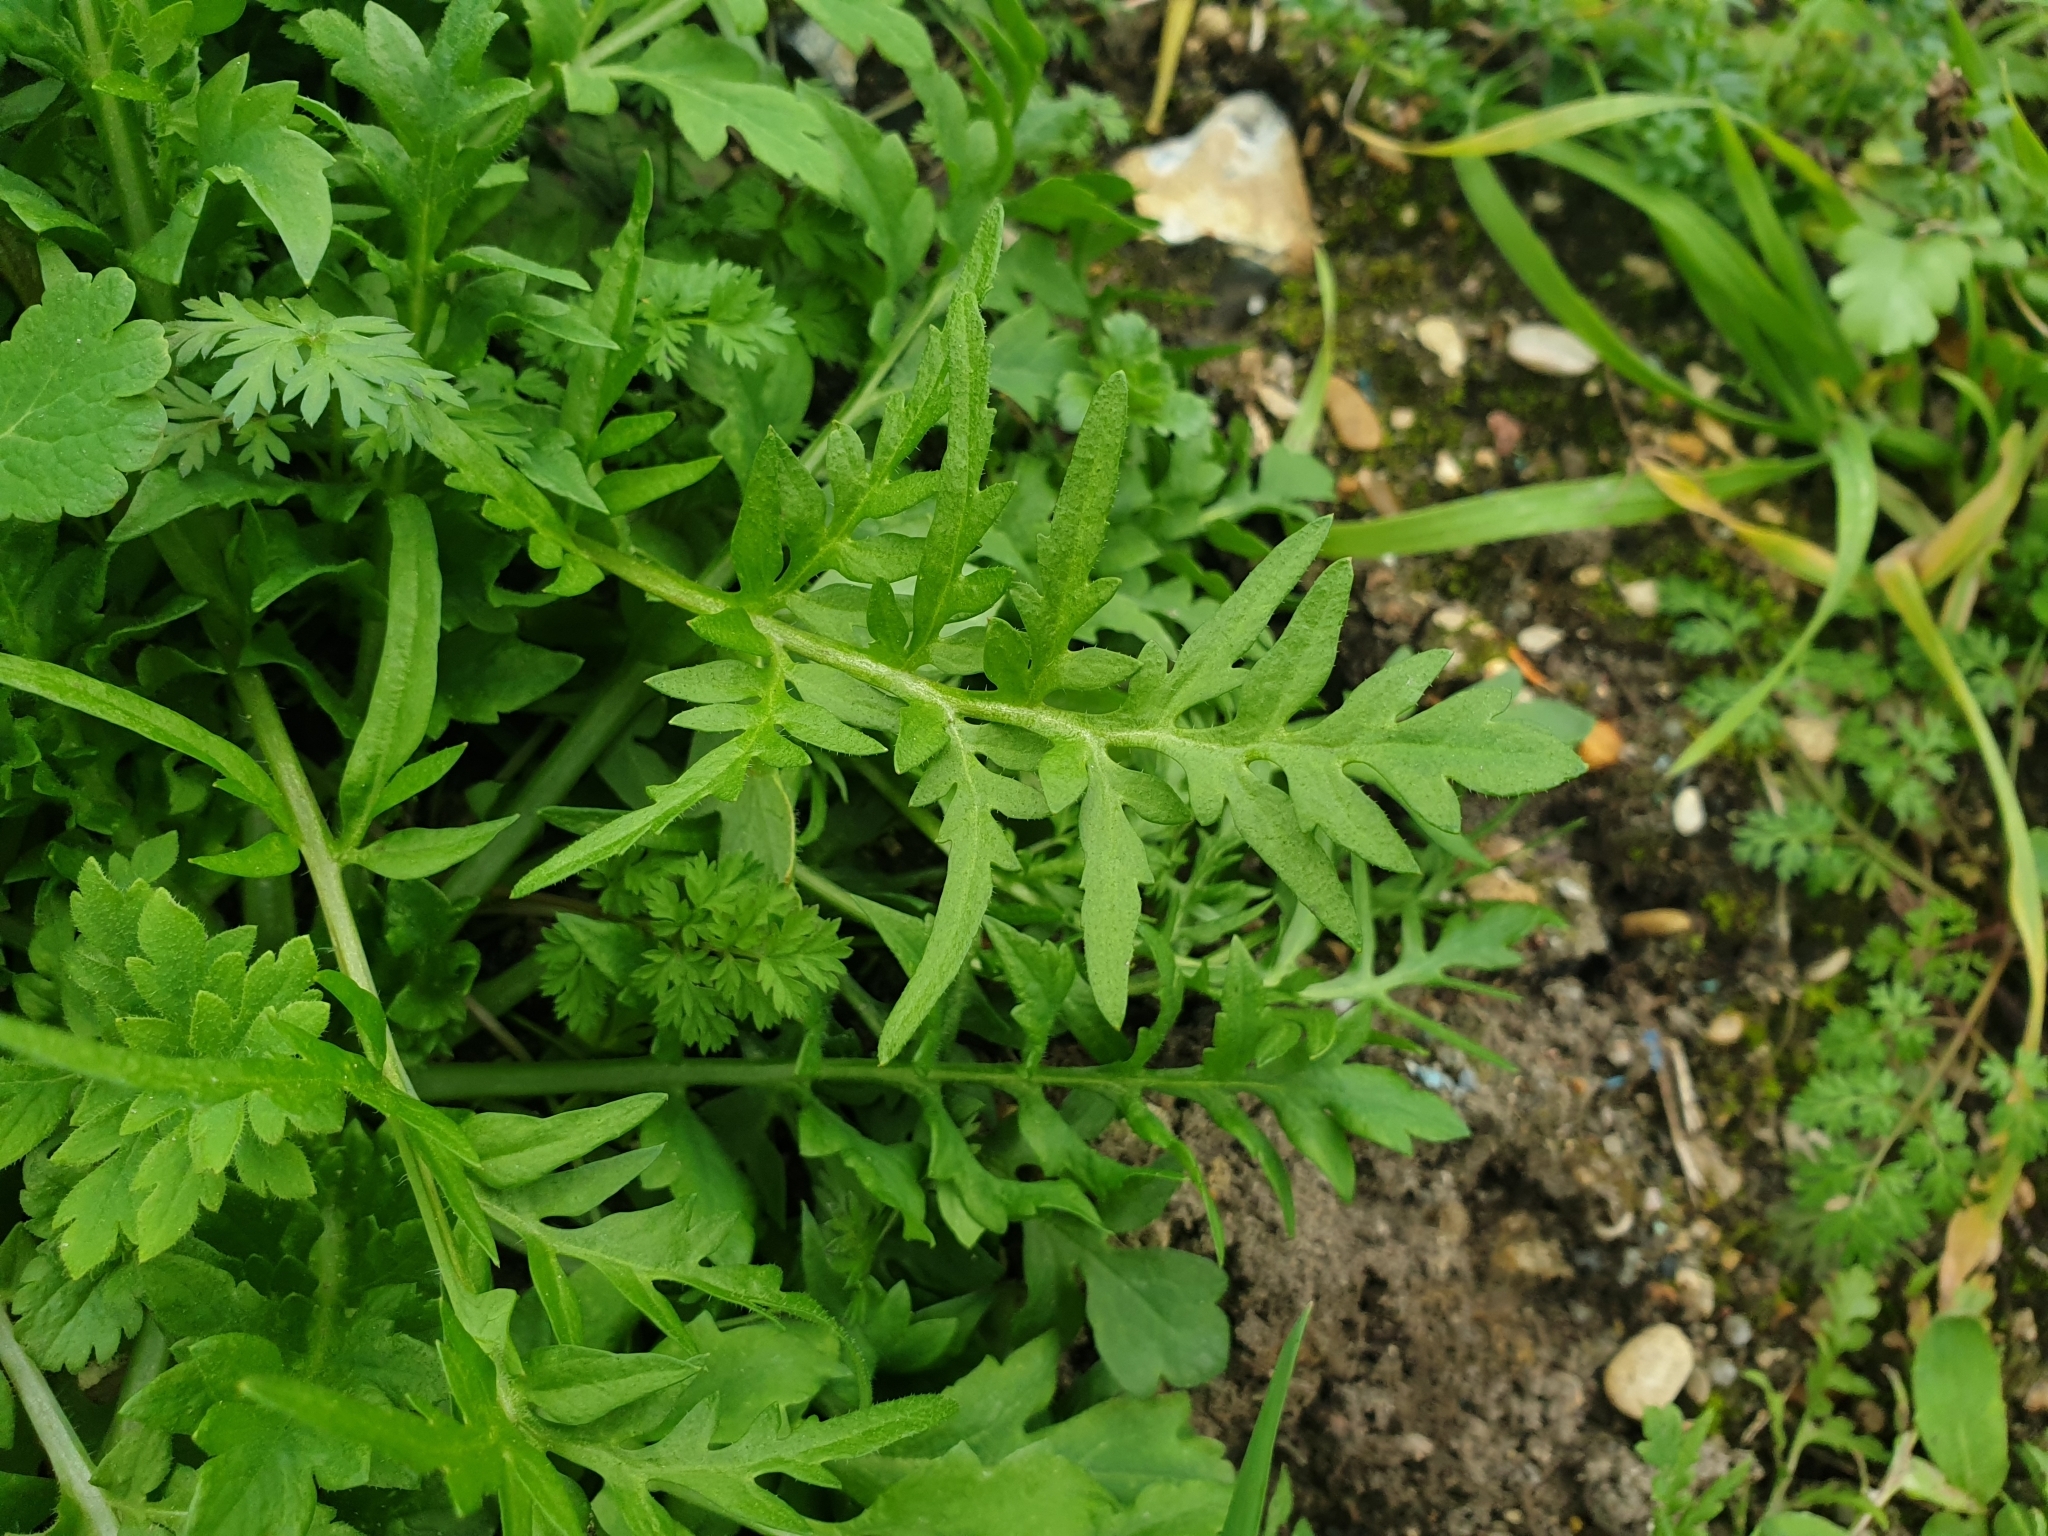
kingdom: Plantae
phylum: Tracheophyta
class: Magnoliopsida
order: Ranunculales
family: Papaveraceae
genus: Papaver
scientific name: Papaver rhoeas
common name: Corn poppy
